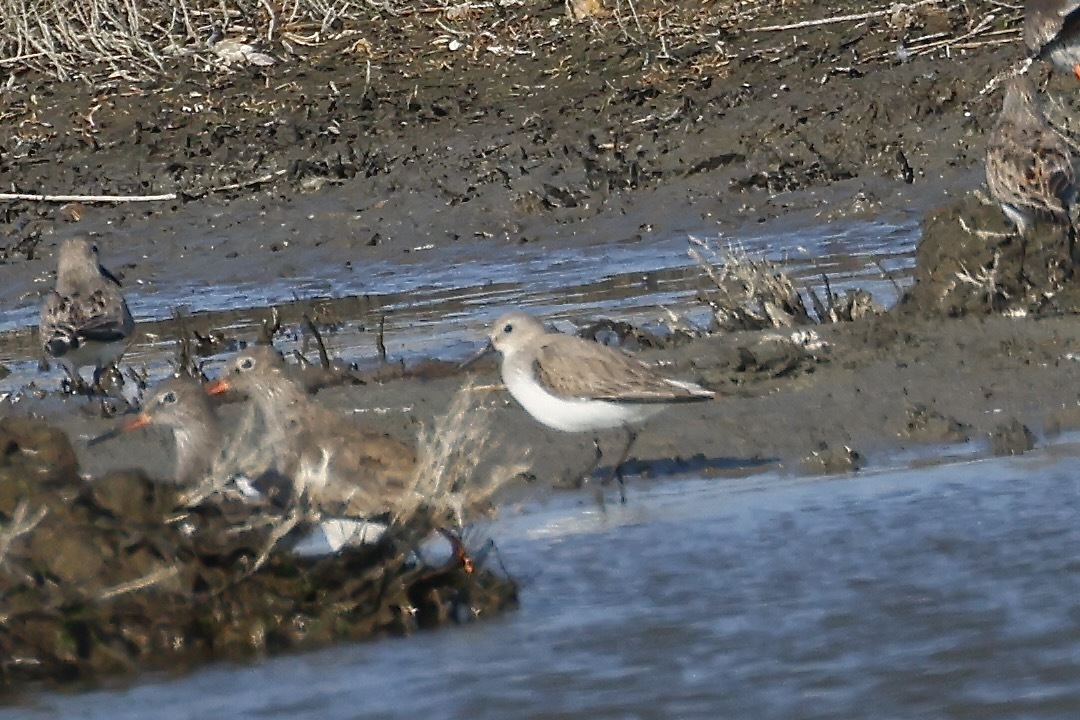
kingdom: Animalia
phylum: Chordata
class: Aves
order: Charadriiformes
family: Scolopacidae
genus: Calidris
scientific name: Calidris alpina
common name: Dunlin
